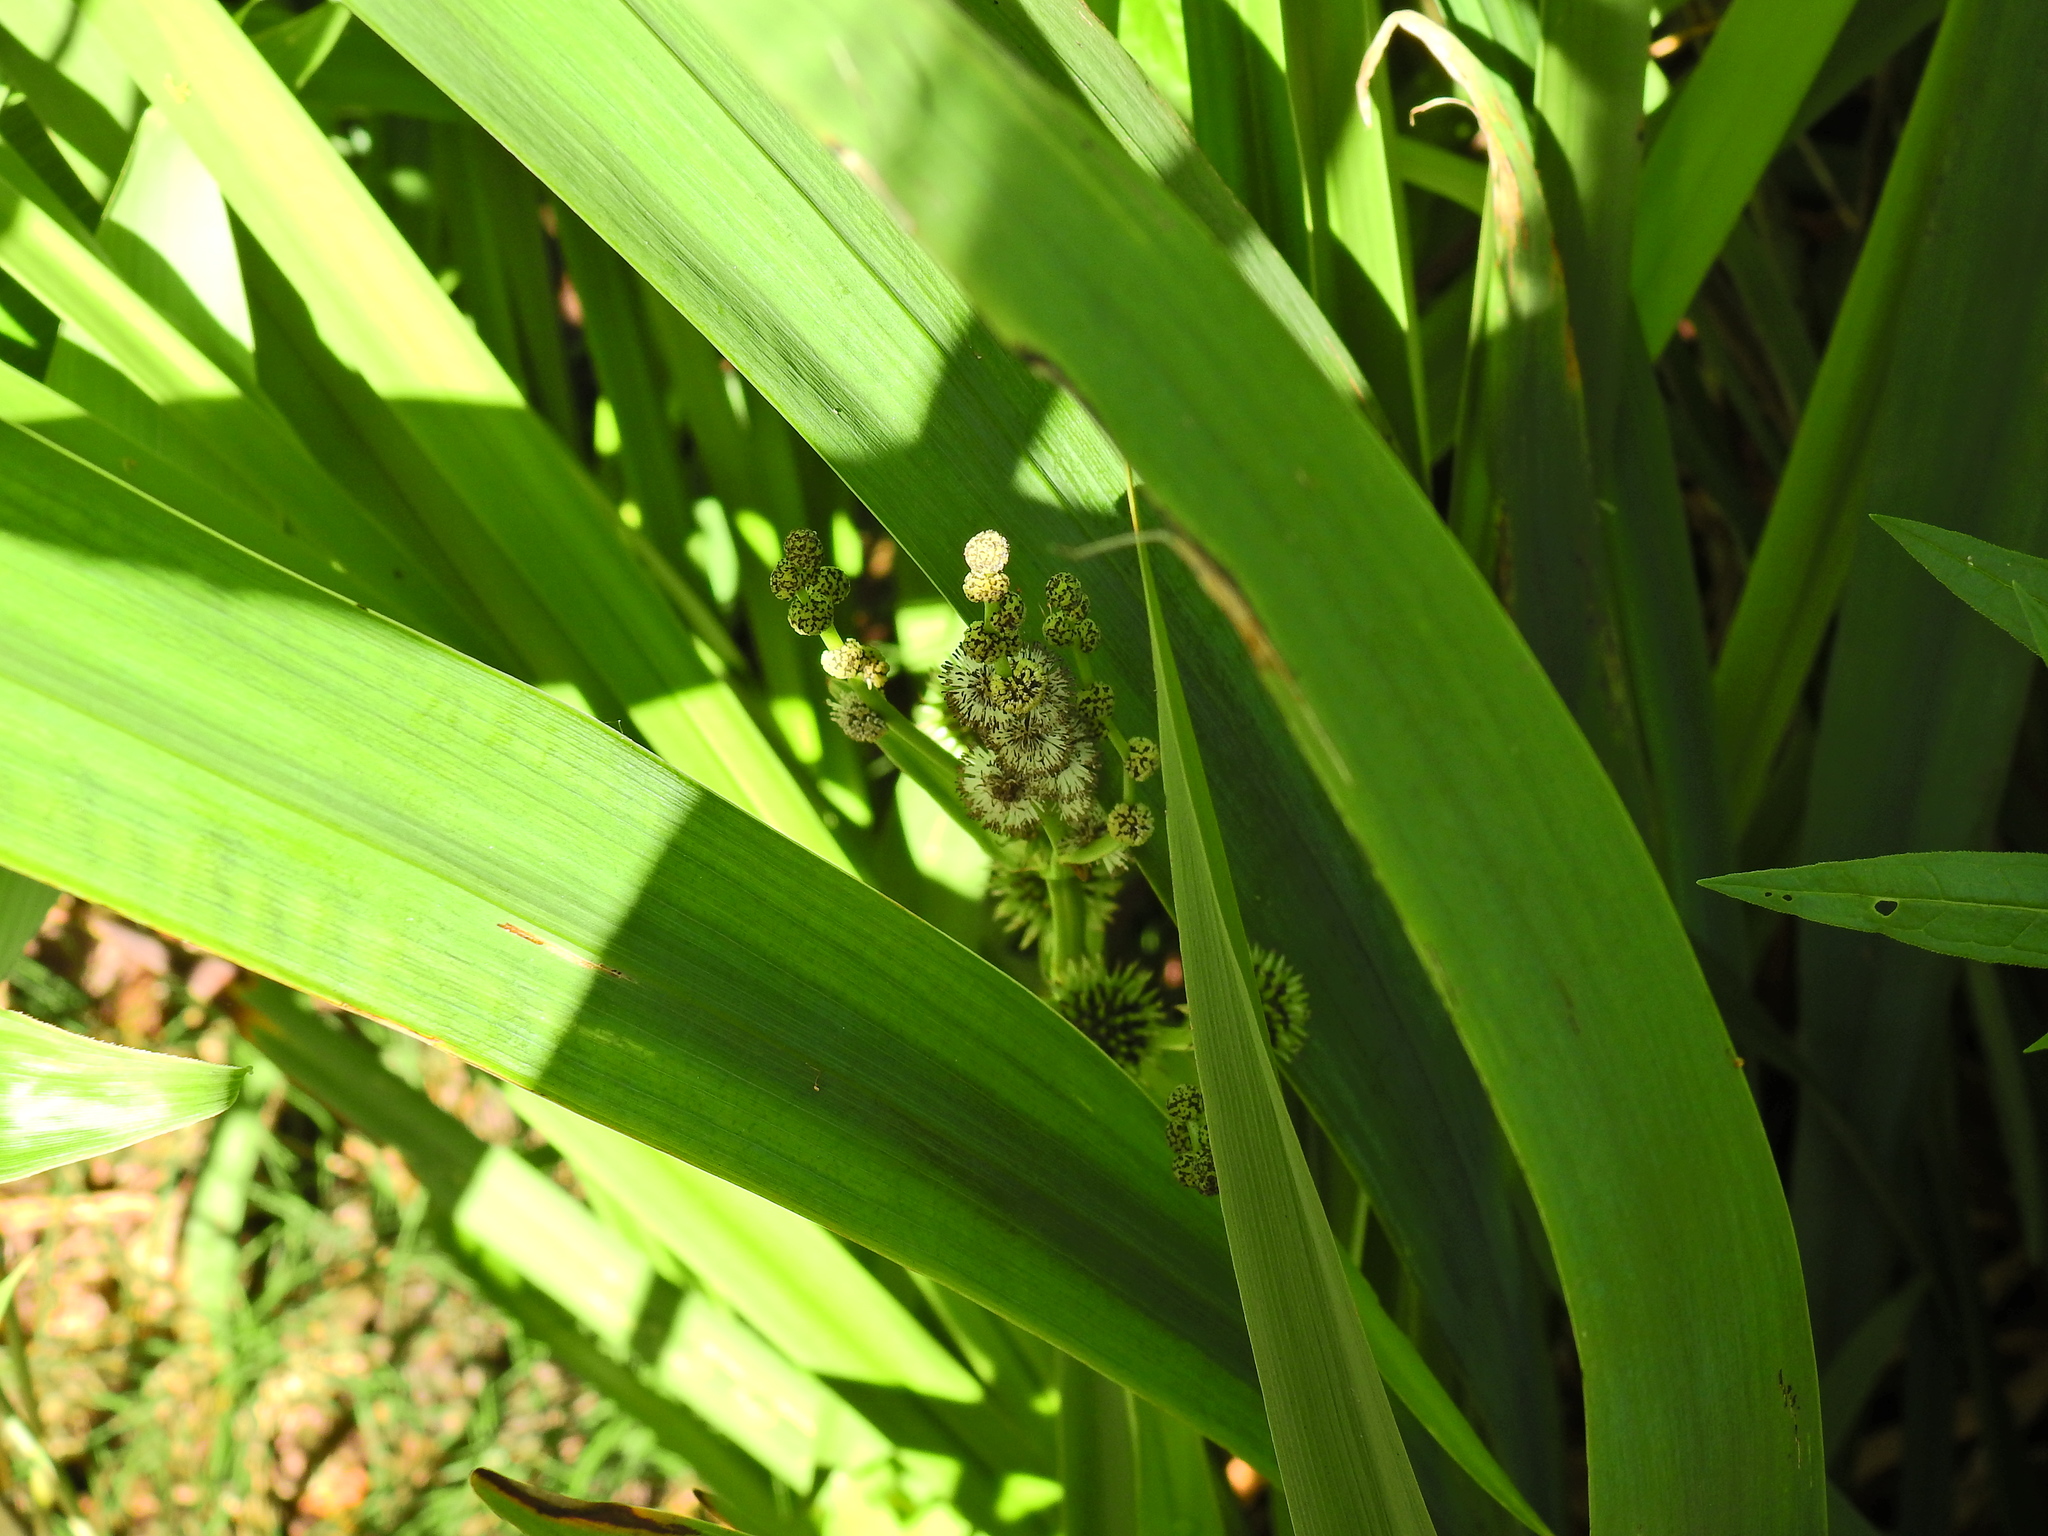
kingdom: Plantae
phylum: Tracheophyta
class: Liliopsida
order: Poales
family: Typhaceae
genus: Sparganium
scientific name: Sparganium erectum
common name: Branched bur-reed
